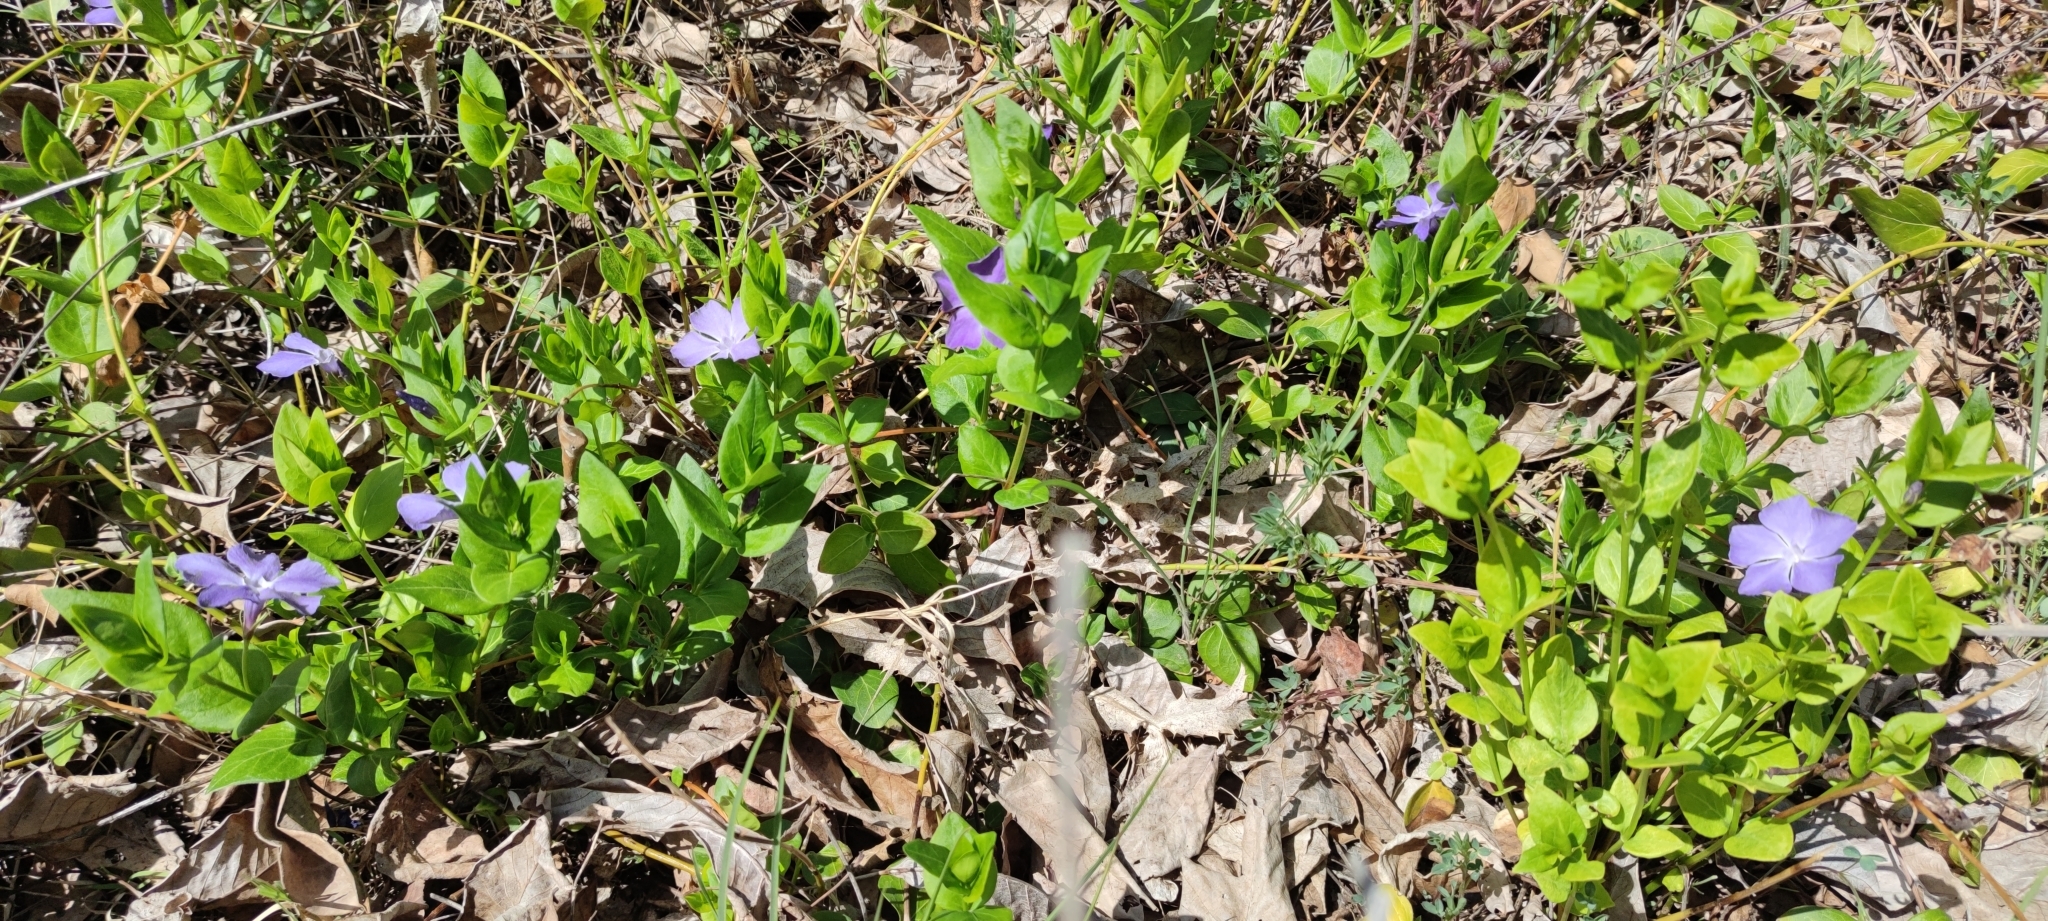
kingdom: Plantae
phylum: Tracheophyta
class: Magnoliopsida
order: Gentianales
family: Apocynaceae
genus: Vinca
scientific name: Vinca major
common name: Greater periwinkle
